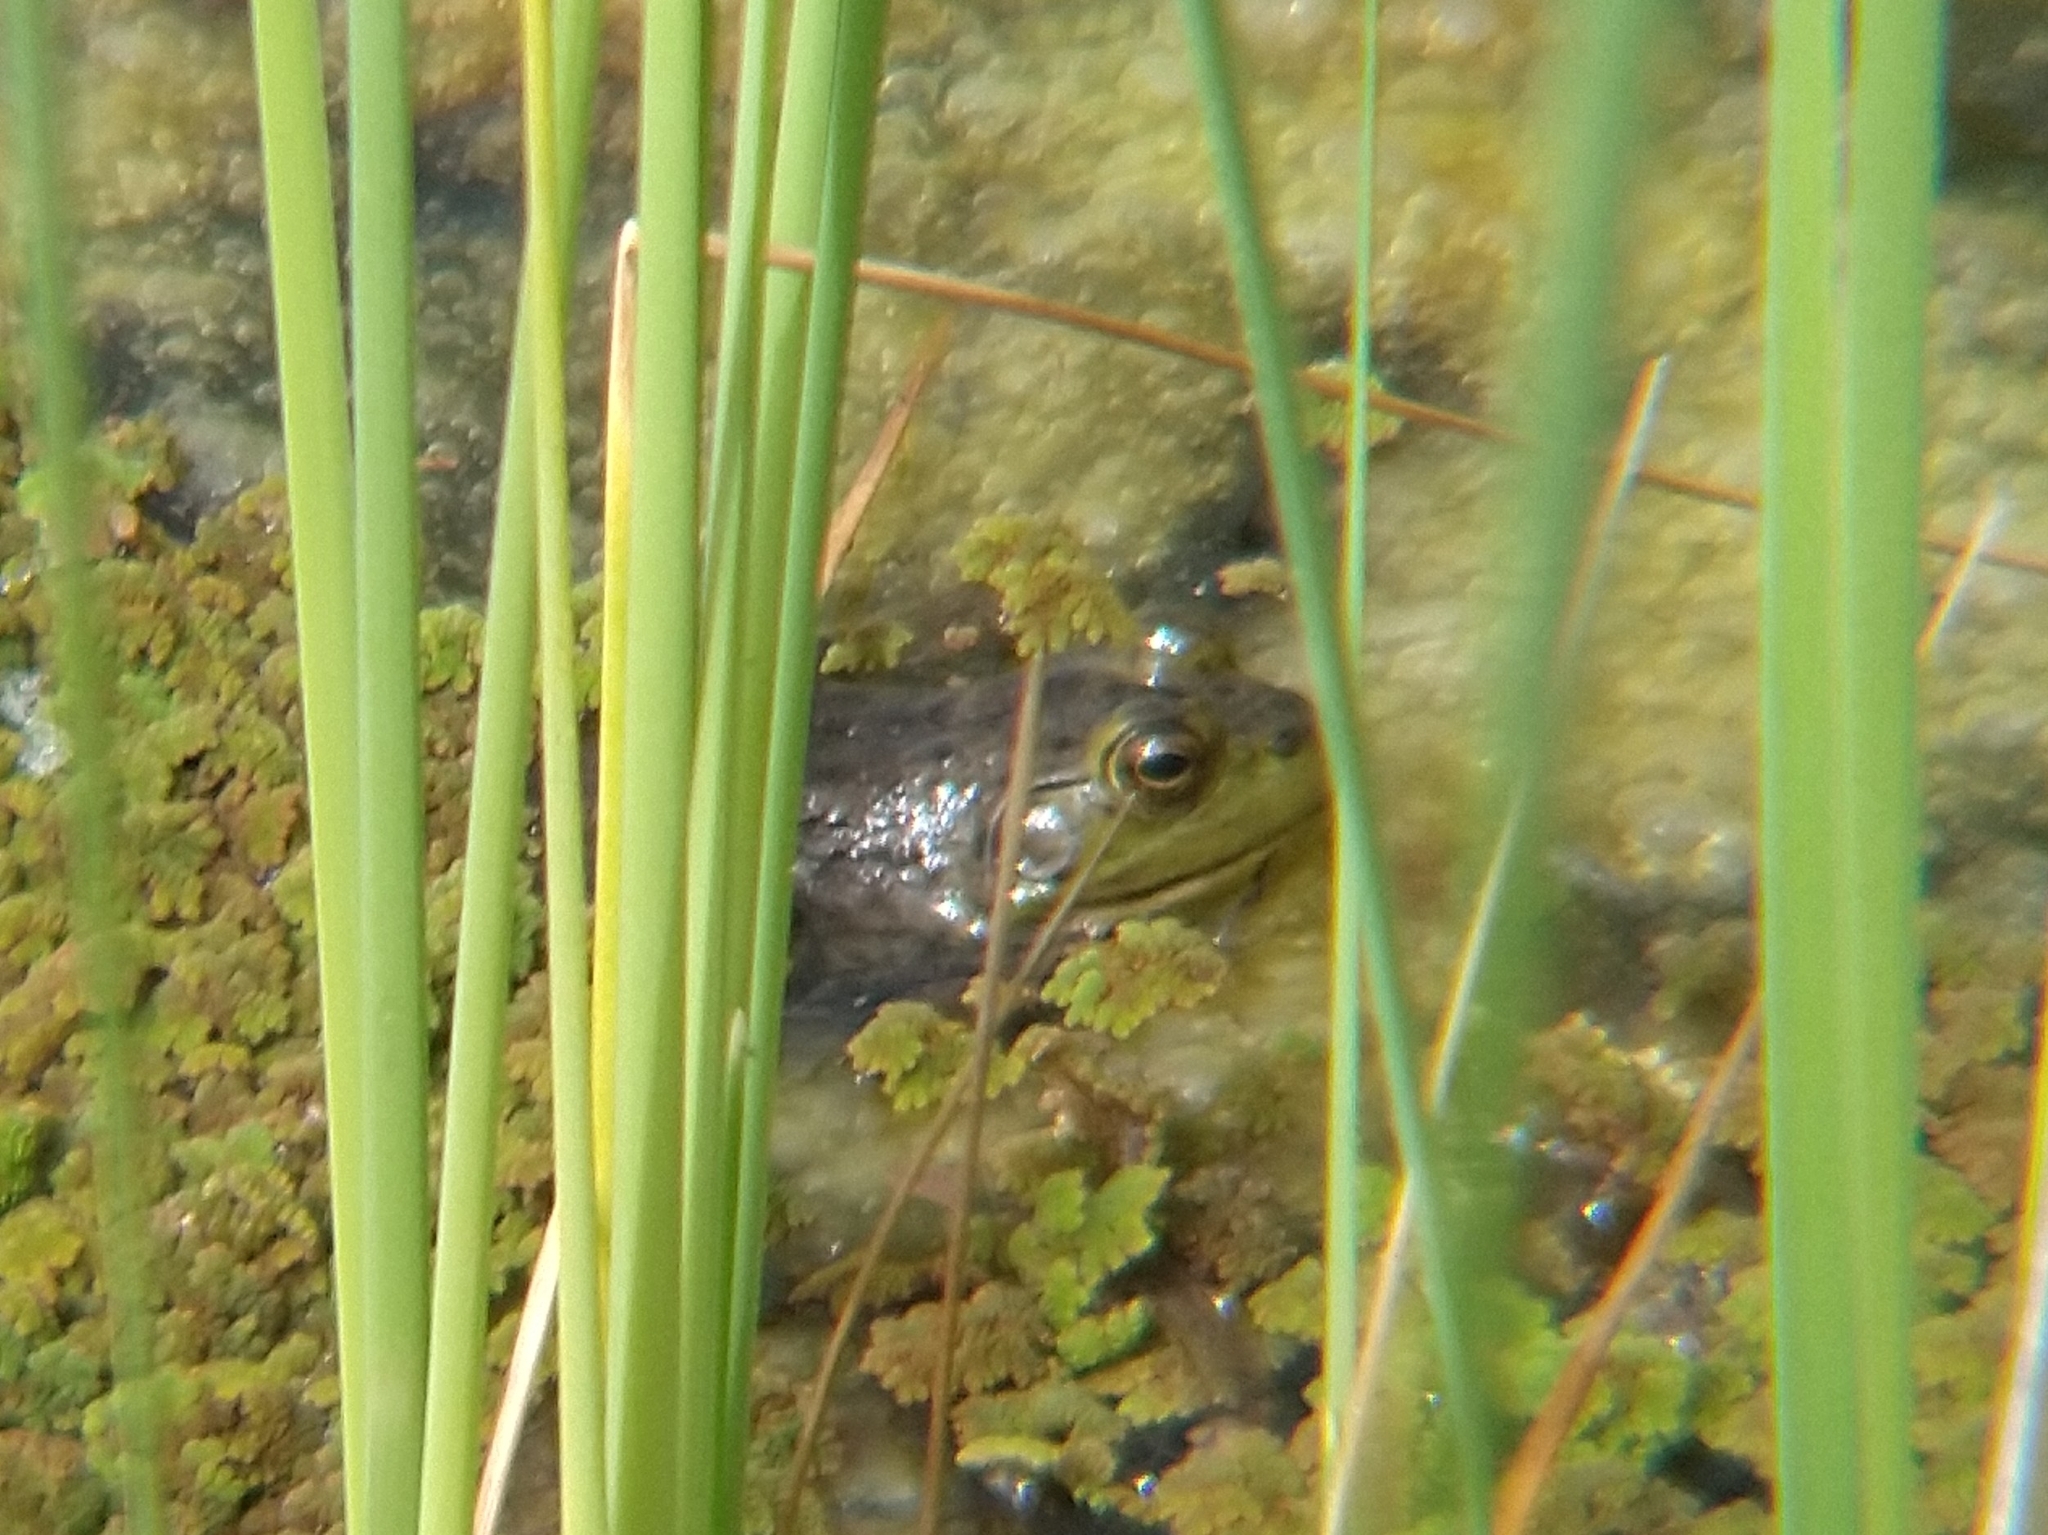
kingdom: Animalia
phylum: Chordata
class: Amphibia
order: Anura
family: Ranidae
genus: Lithobates
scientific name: Lithobates catesbeianus
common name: American bullfrog
